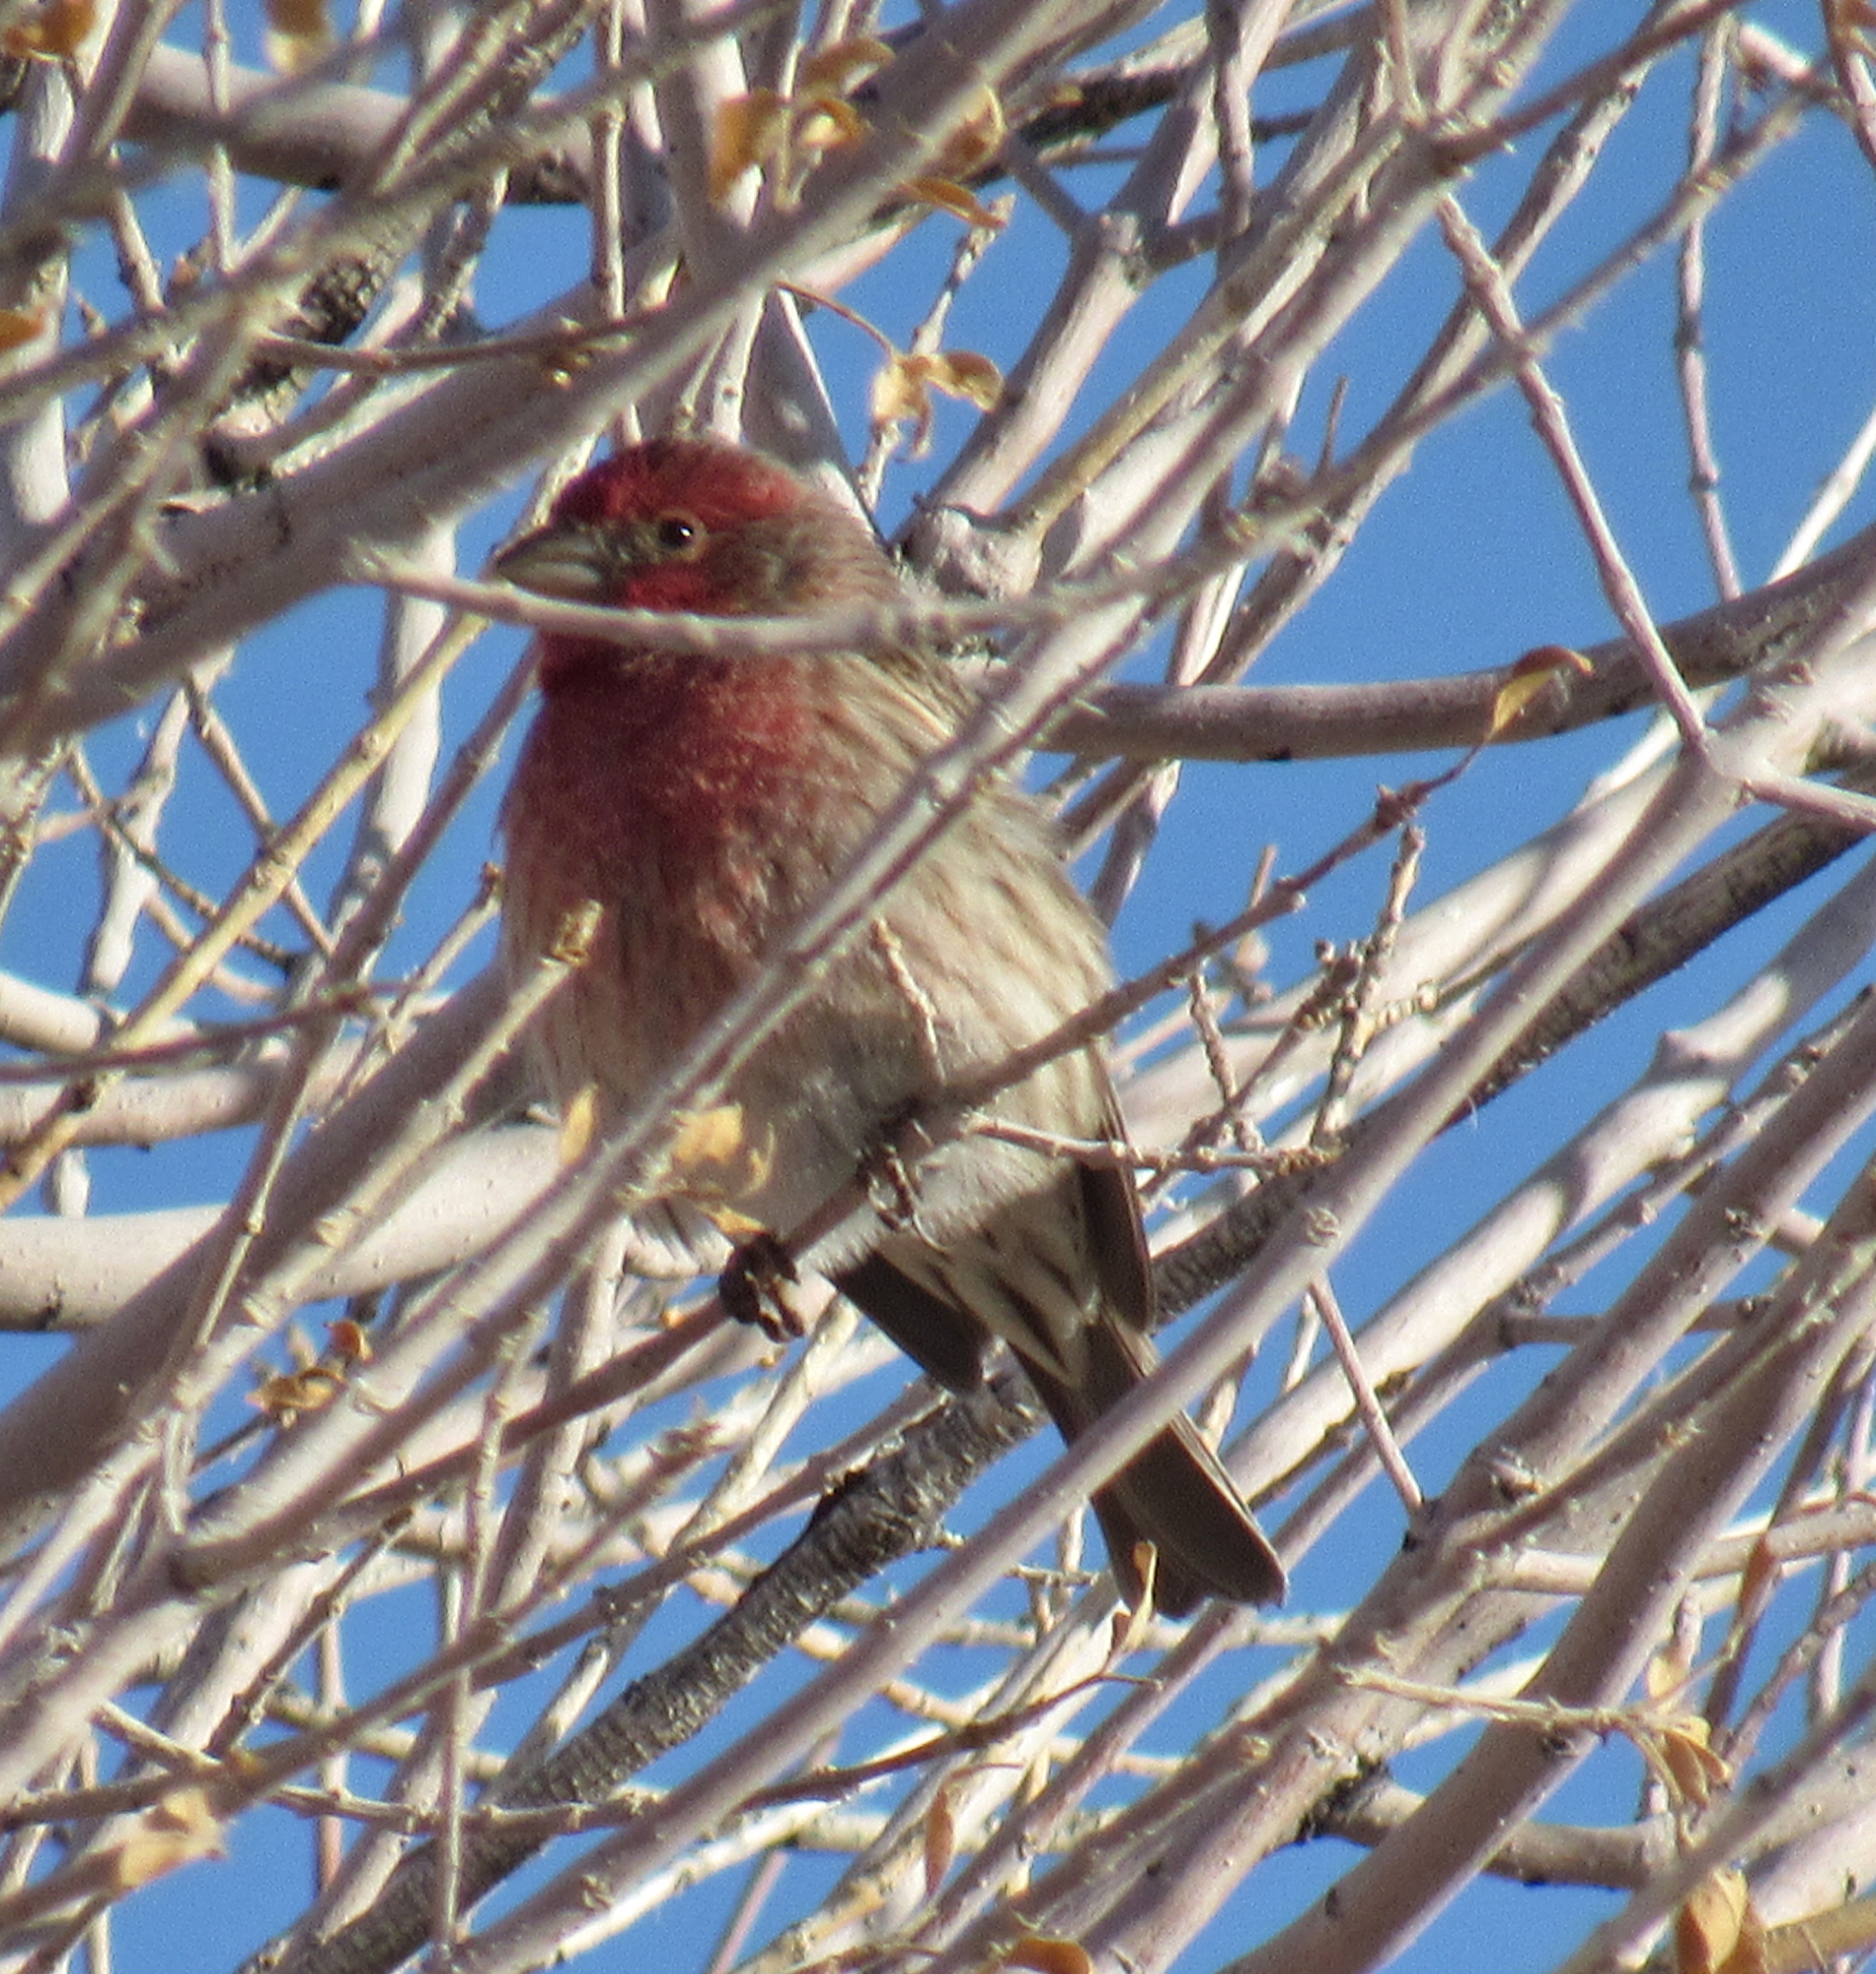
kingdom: Animalia
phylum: Chordata
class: Aves
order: Passeriformes
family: Fringillidae
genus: Haemorhous
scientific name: Haemorhous mexicanus
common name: House finch
